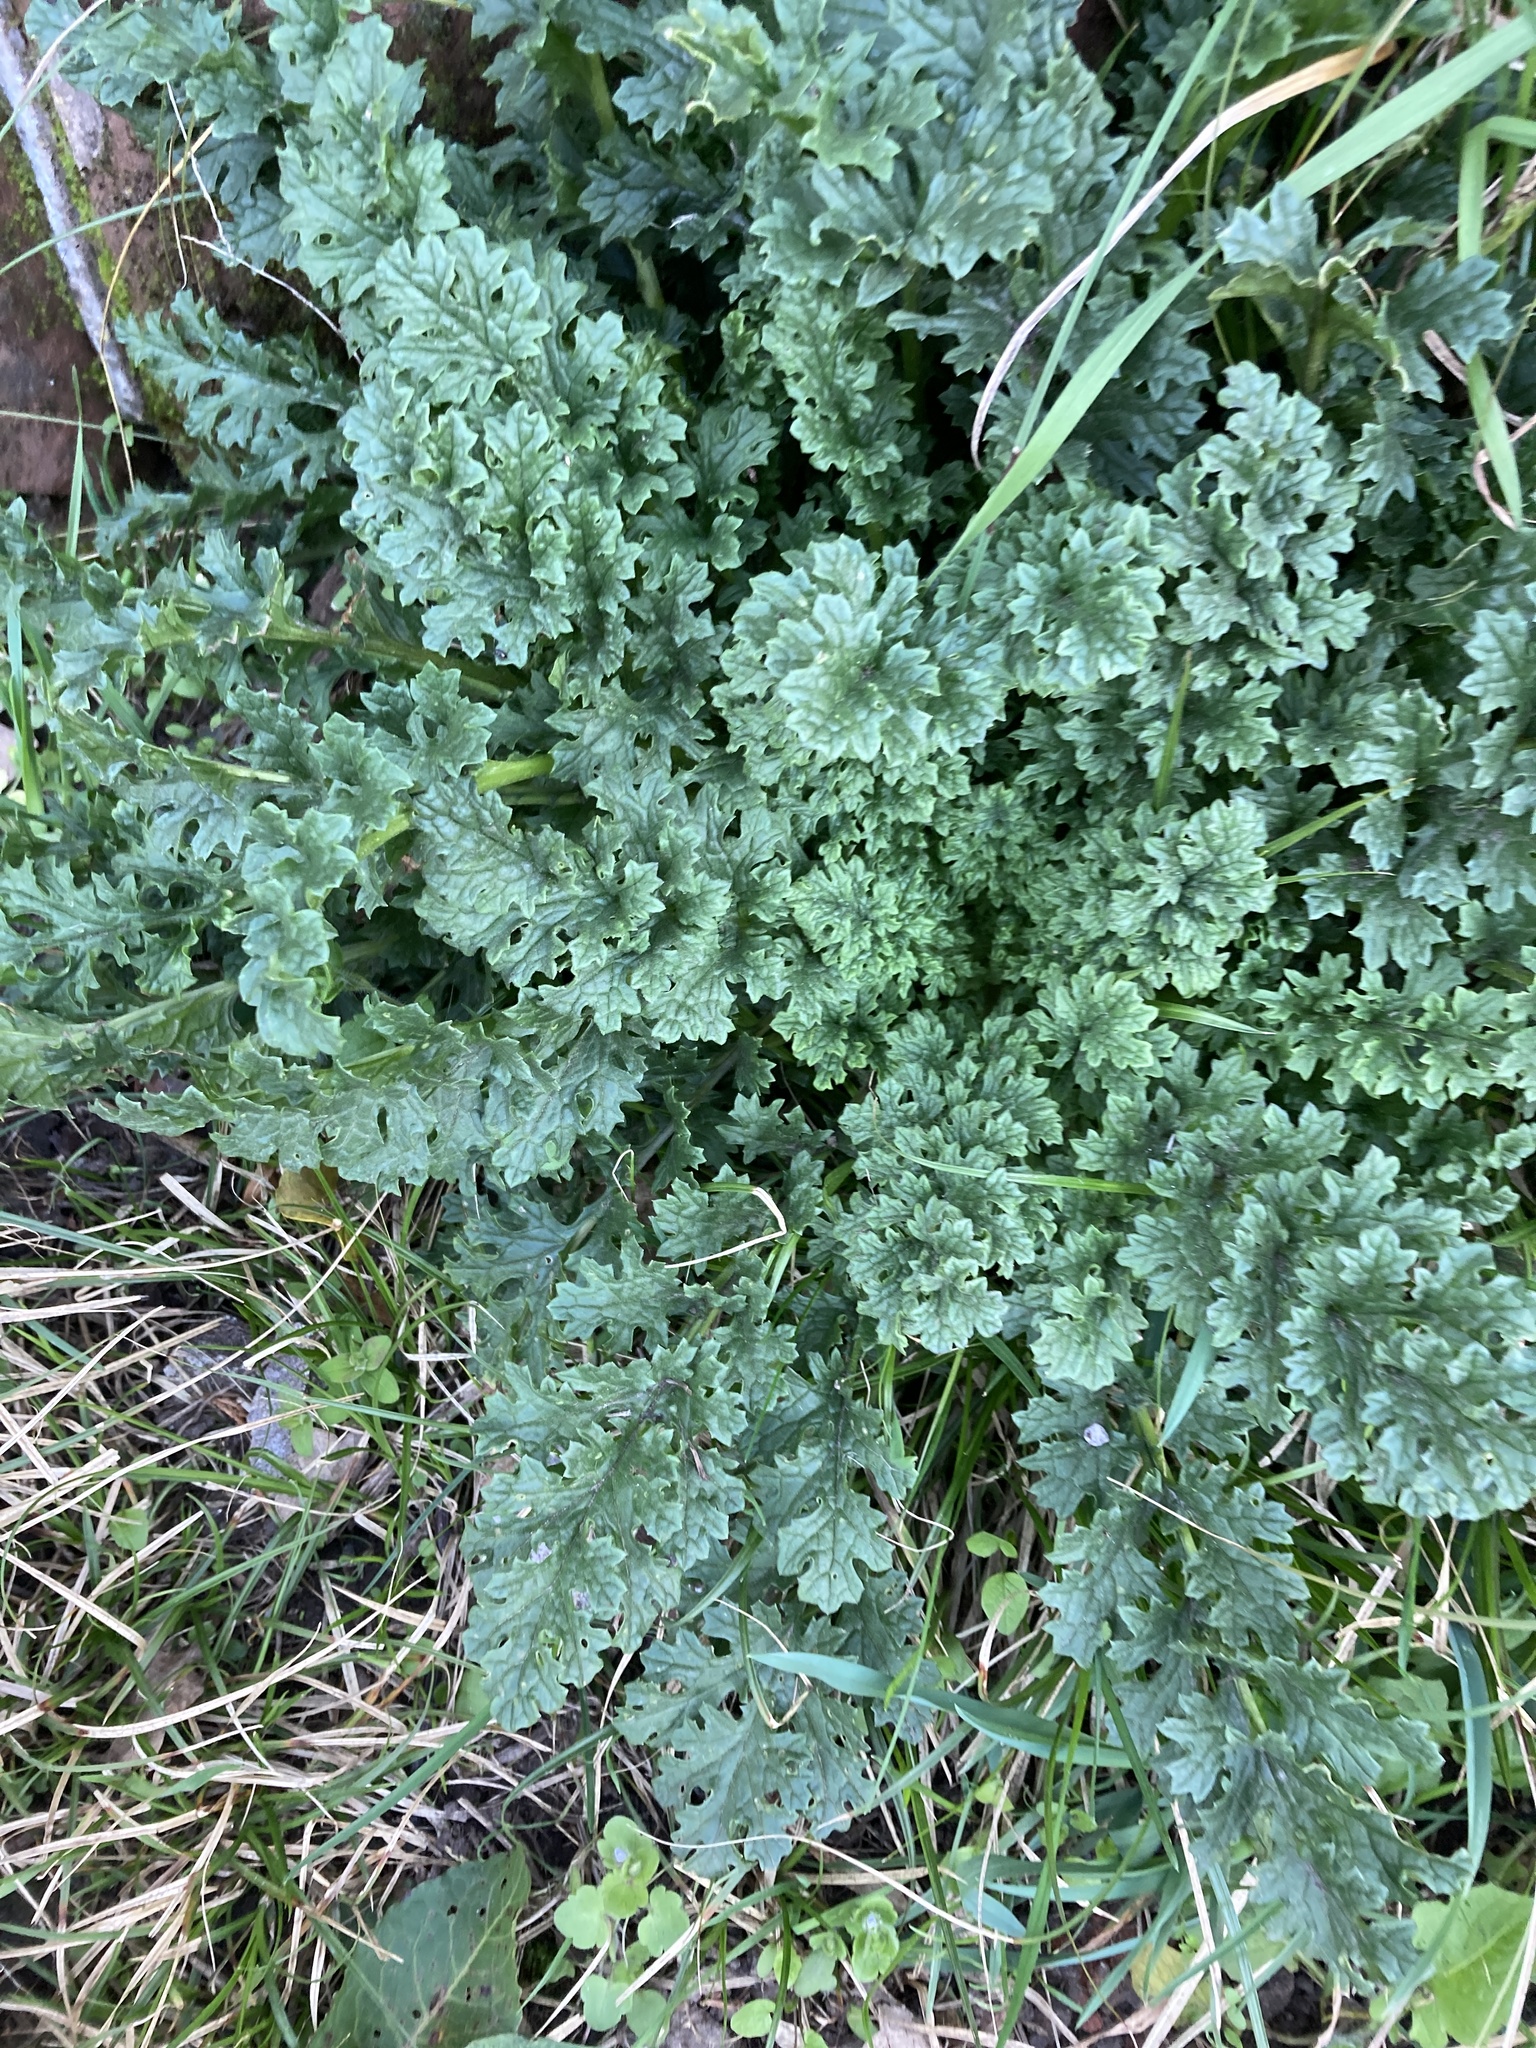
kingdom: Plantae
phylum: Tracheophyta
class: Magnoliopsida
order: Asterales
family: Asteraceae
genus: Jacobaea
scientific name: Jacobaea vulgaris
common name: Stinking willie
